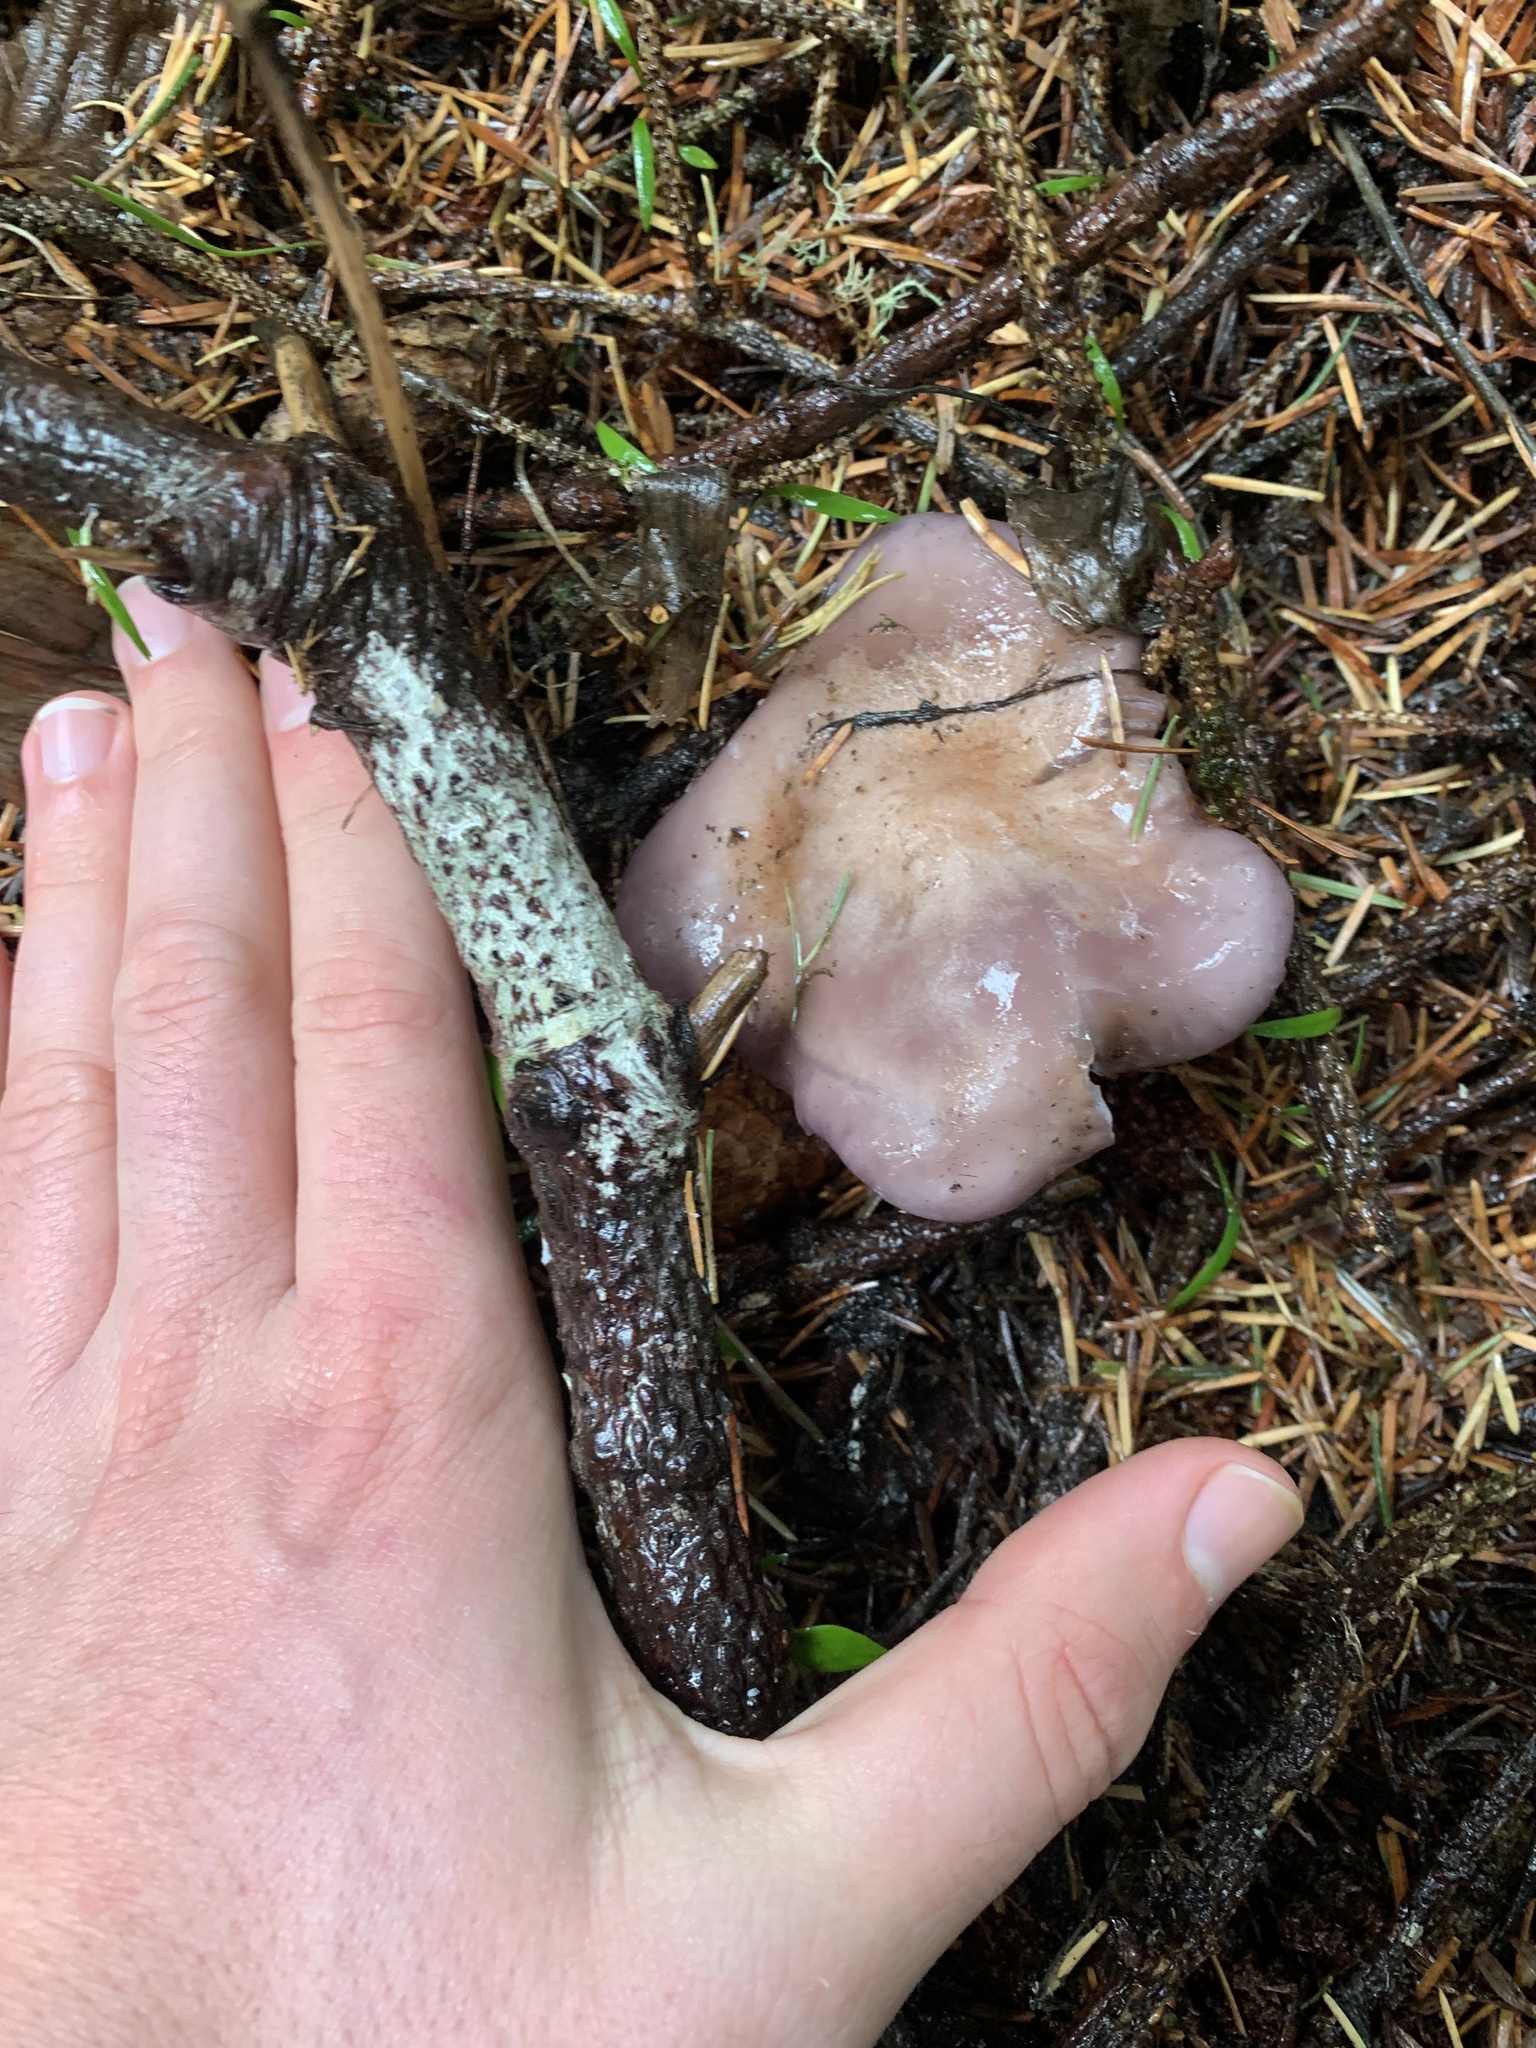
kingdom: Fungi
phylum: Basidiomycota
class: Agaricomycetes
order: Agaricales
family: Tricholomataceae
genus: Collybia
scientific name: Collybia
